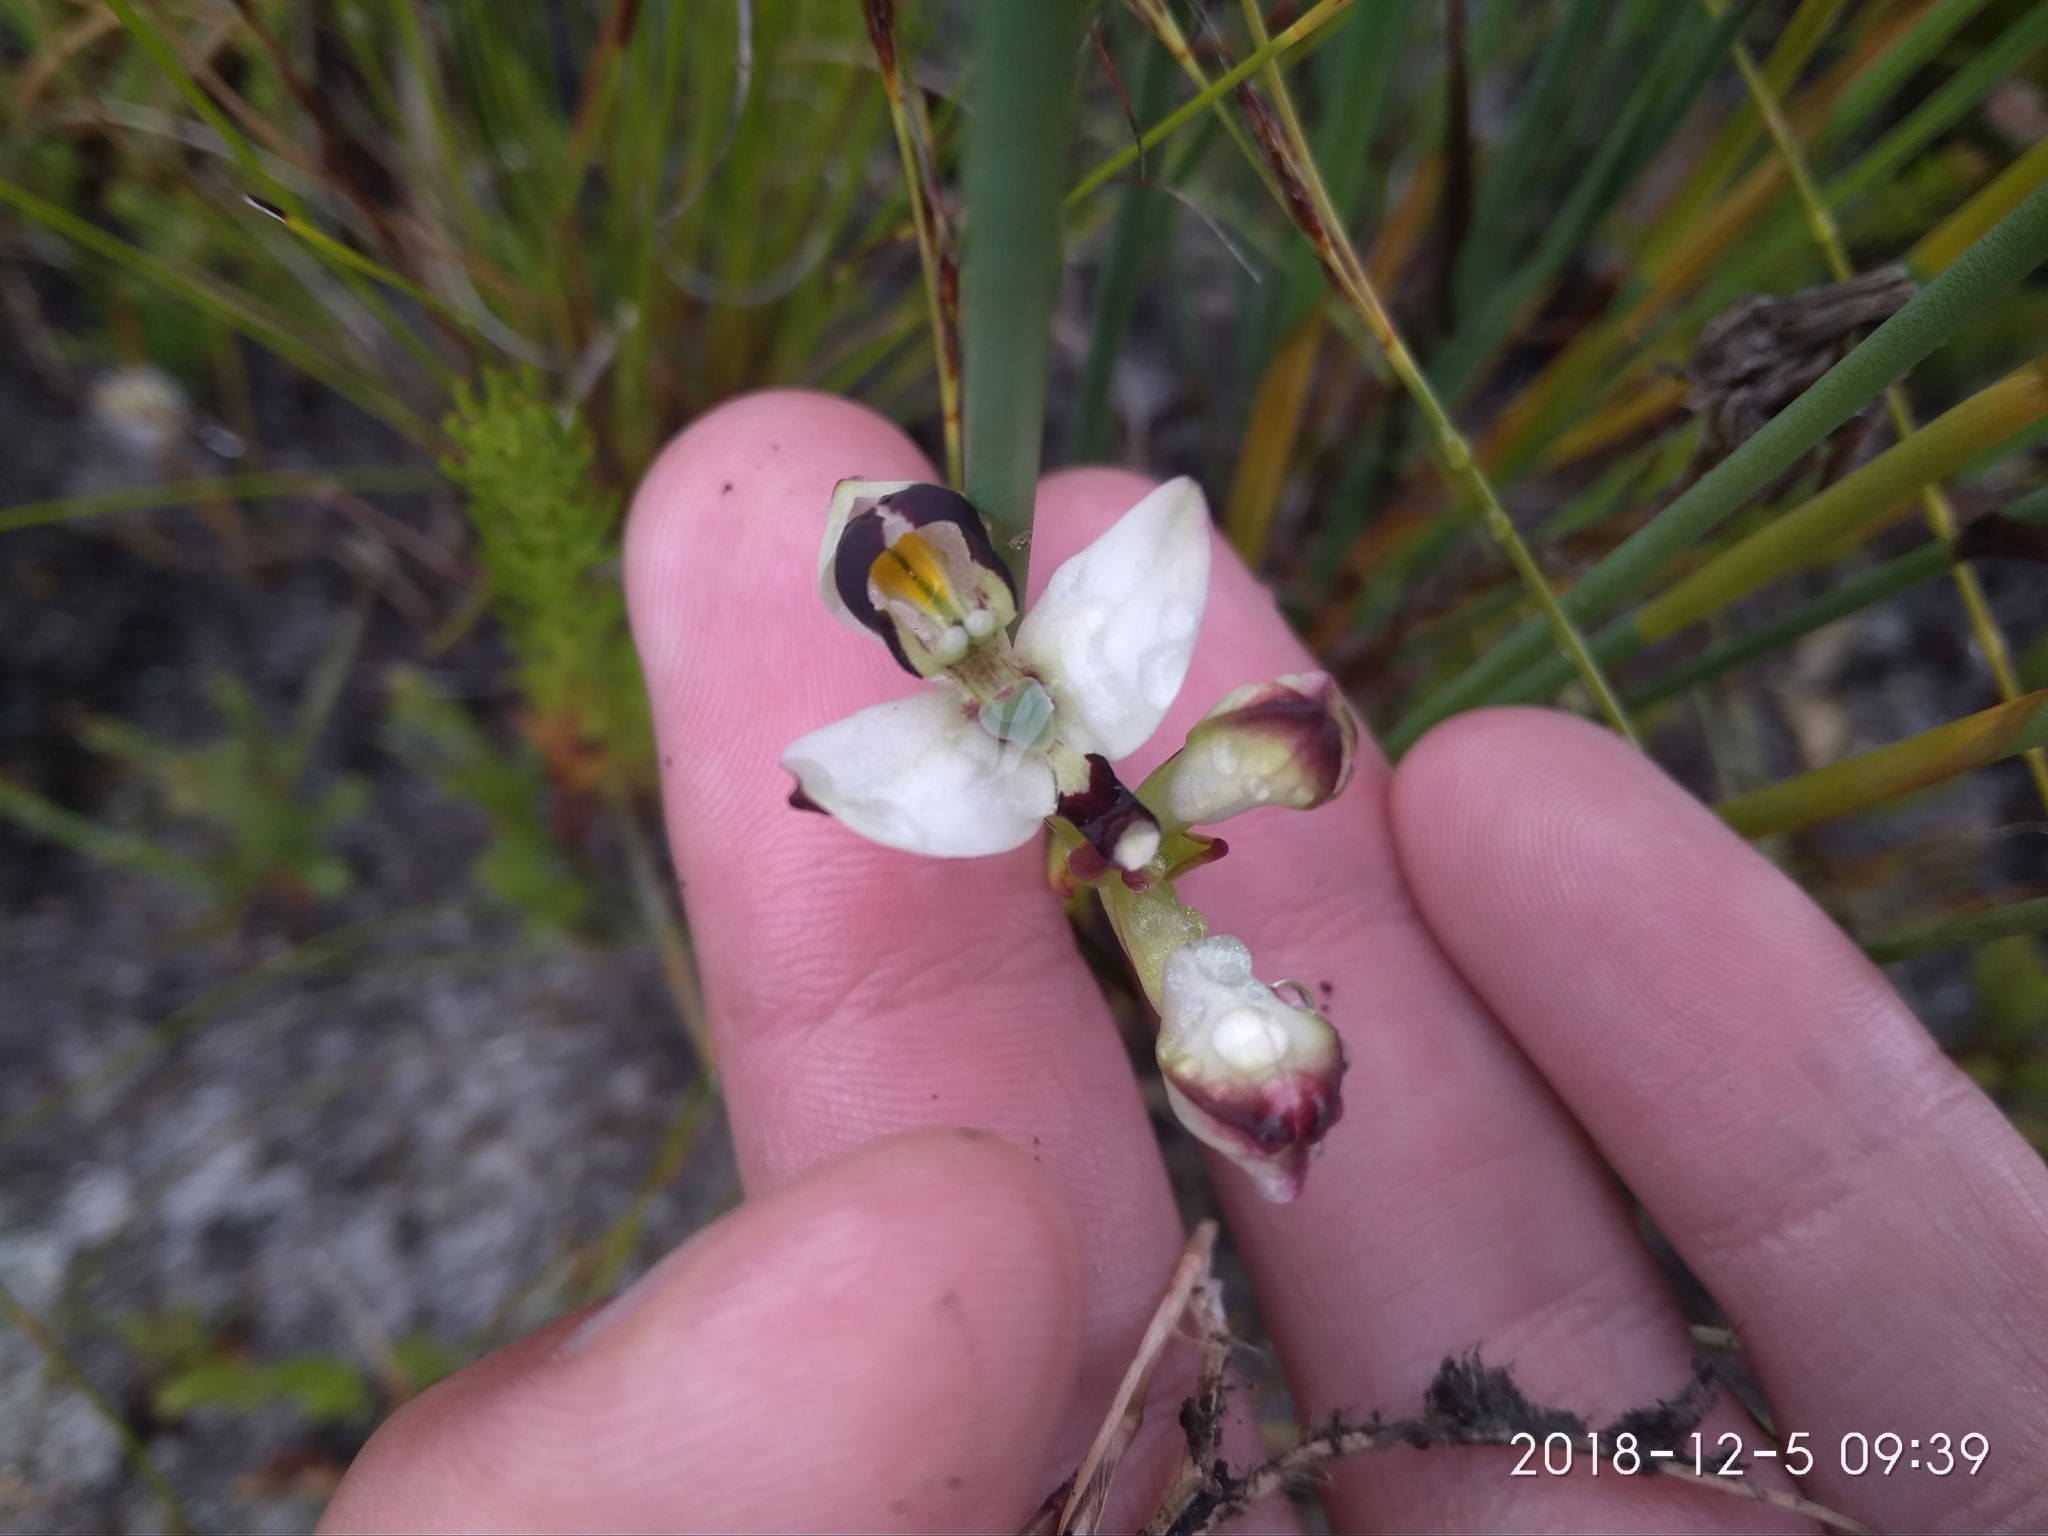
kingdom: Plantae
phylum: Tracheophyta
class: Liliopsida
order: Asparagales
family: Orchidaceae
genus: Disa
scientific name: Disa bivalvata
